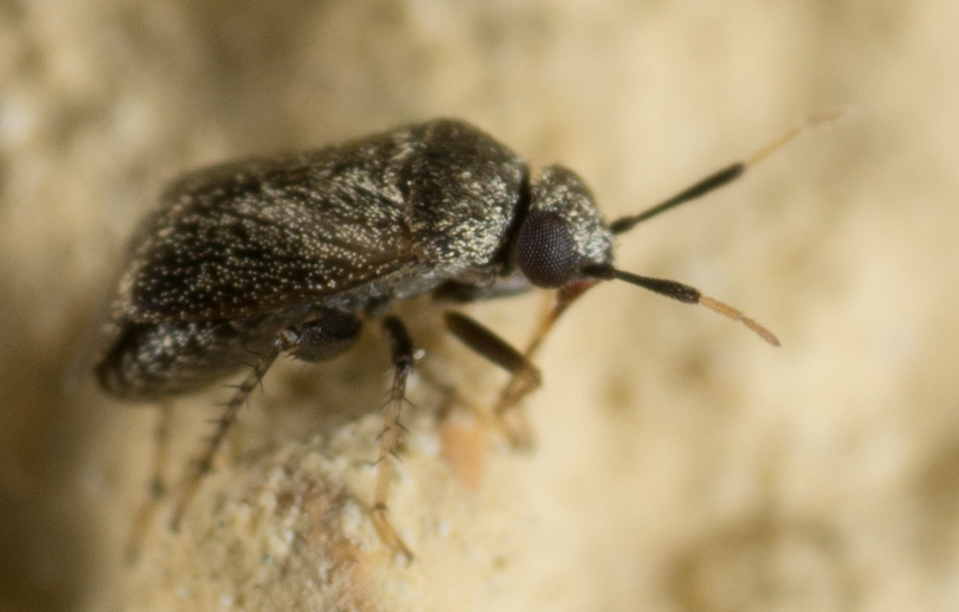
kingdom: Animalia
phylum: Arthropoda
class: Insecta
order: Hemiptera
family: Miridae
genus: Rhinacloa
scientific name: Rhinacloa forticornis
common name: Brown cotton mirid
